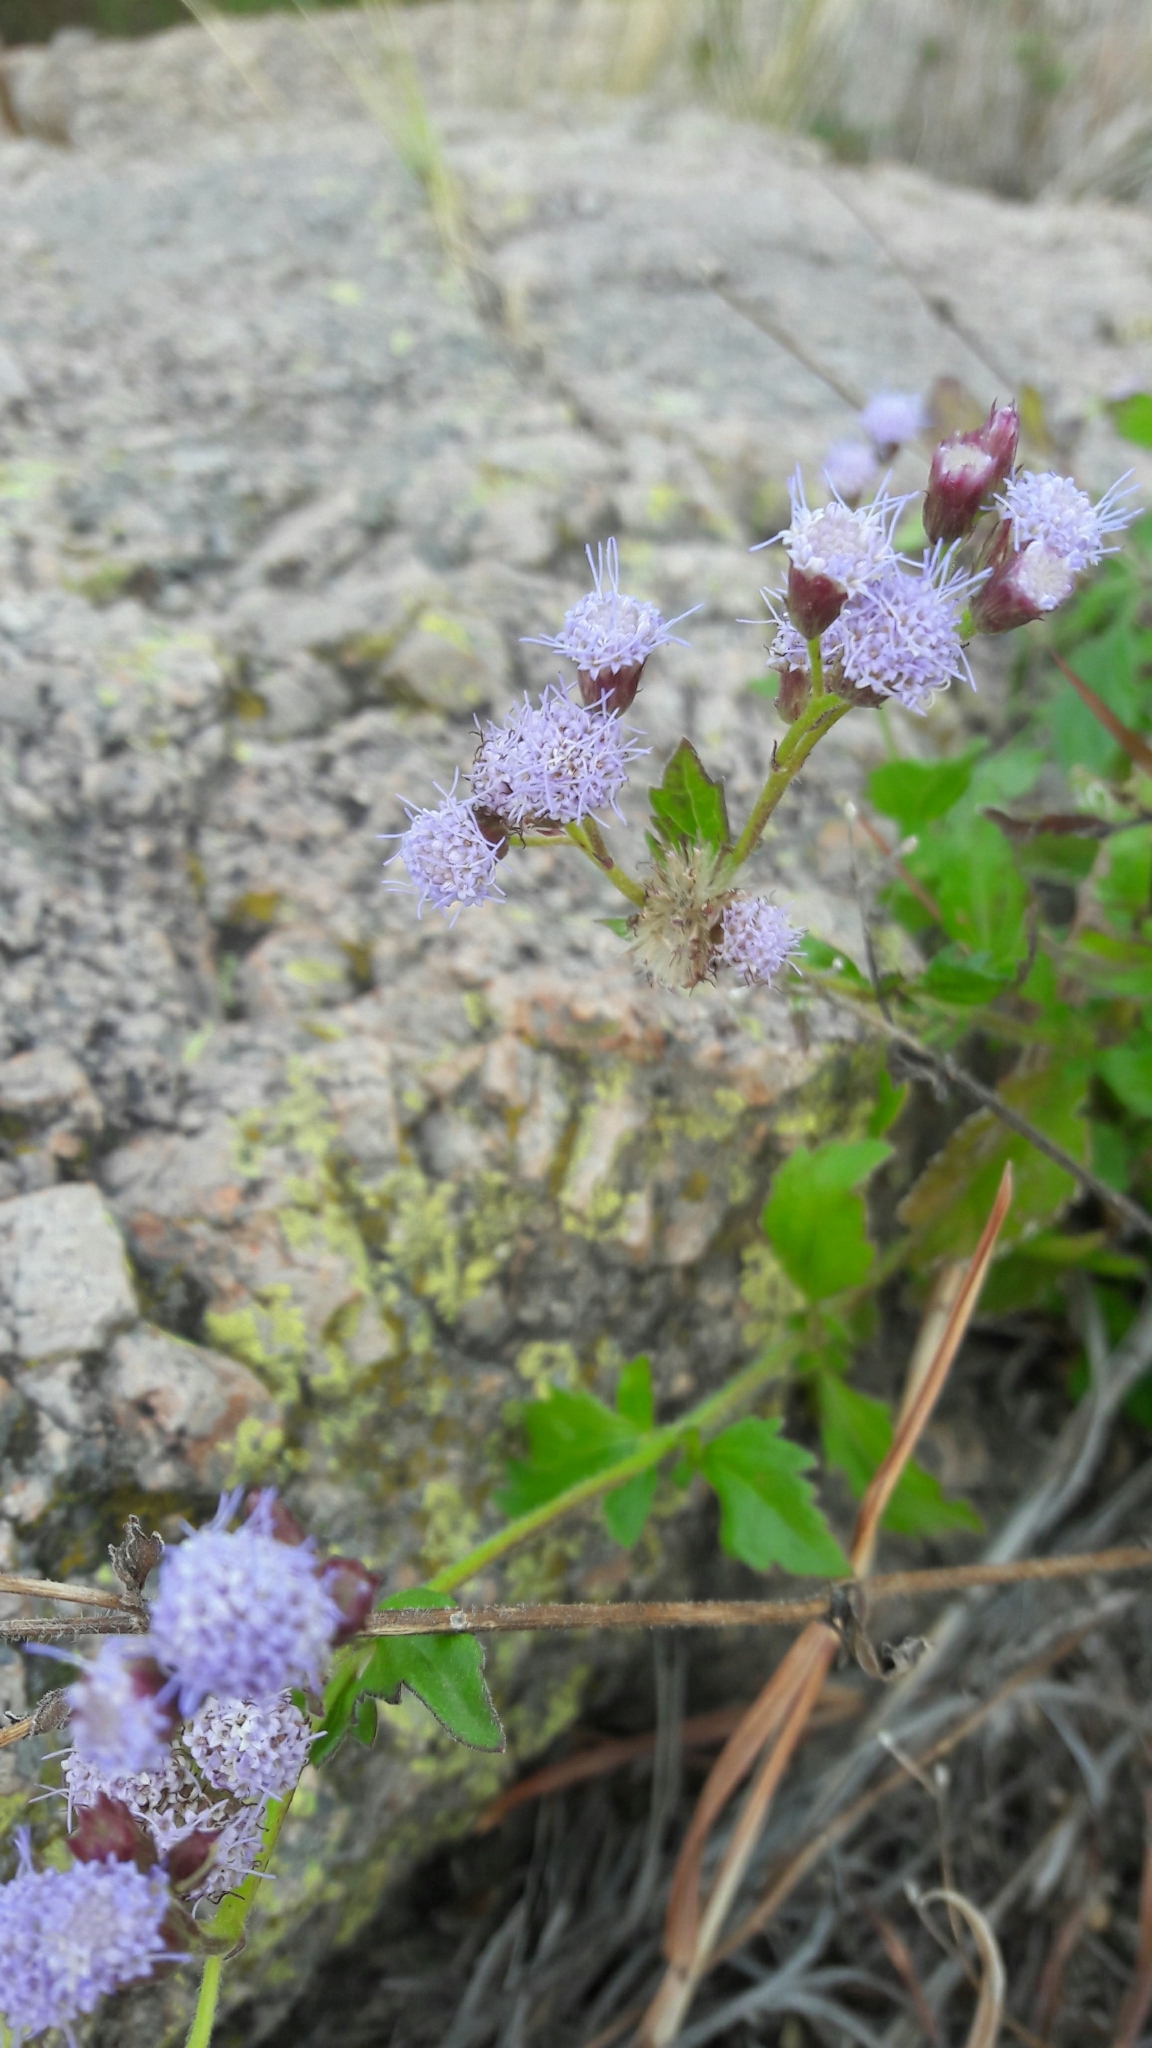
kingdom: Plantae
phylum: Tracheophyta
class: Magnoliopsida
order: Asterales
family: Asteraceae
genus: Praxelis
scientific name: Praxelis clematidea
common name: Praxelis
